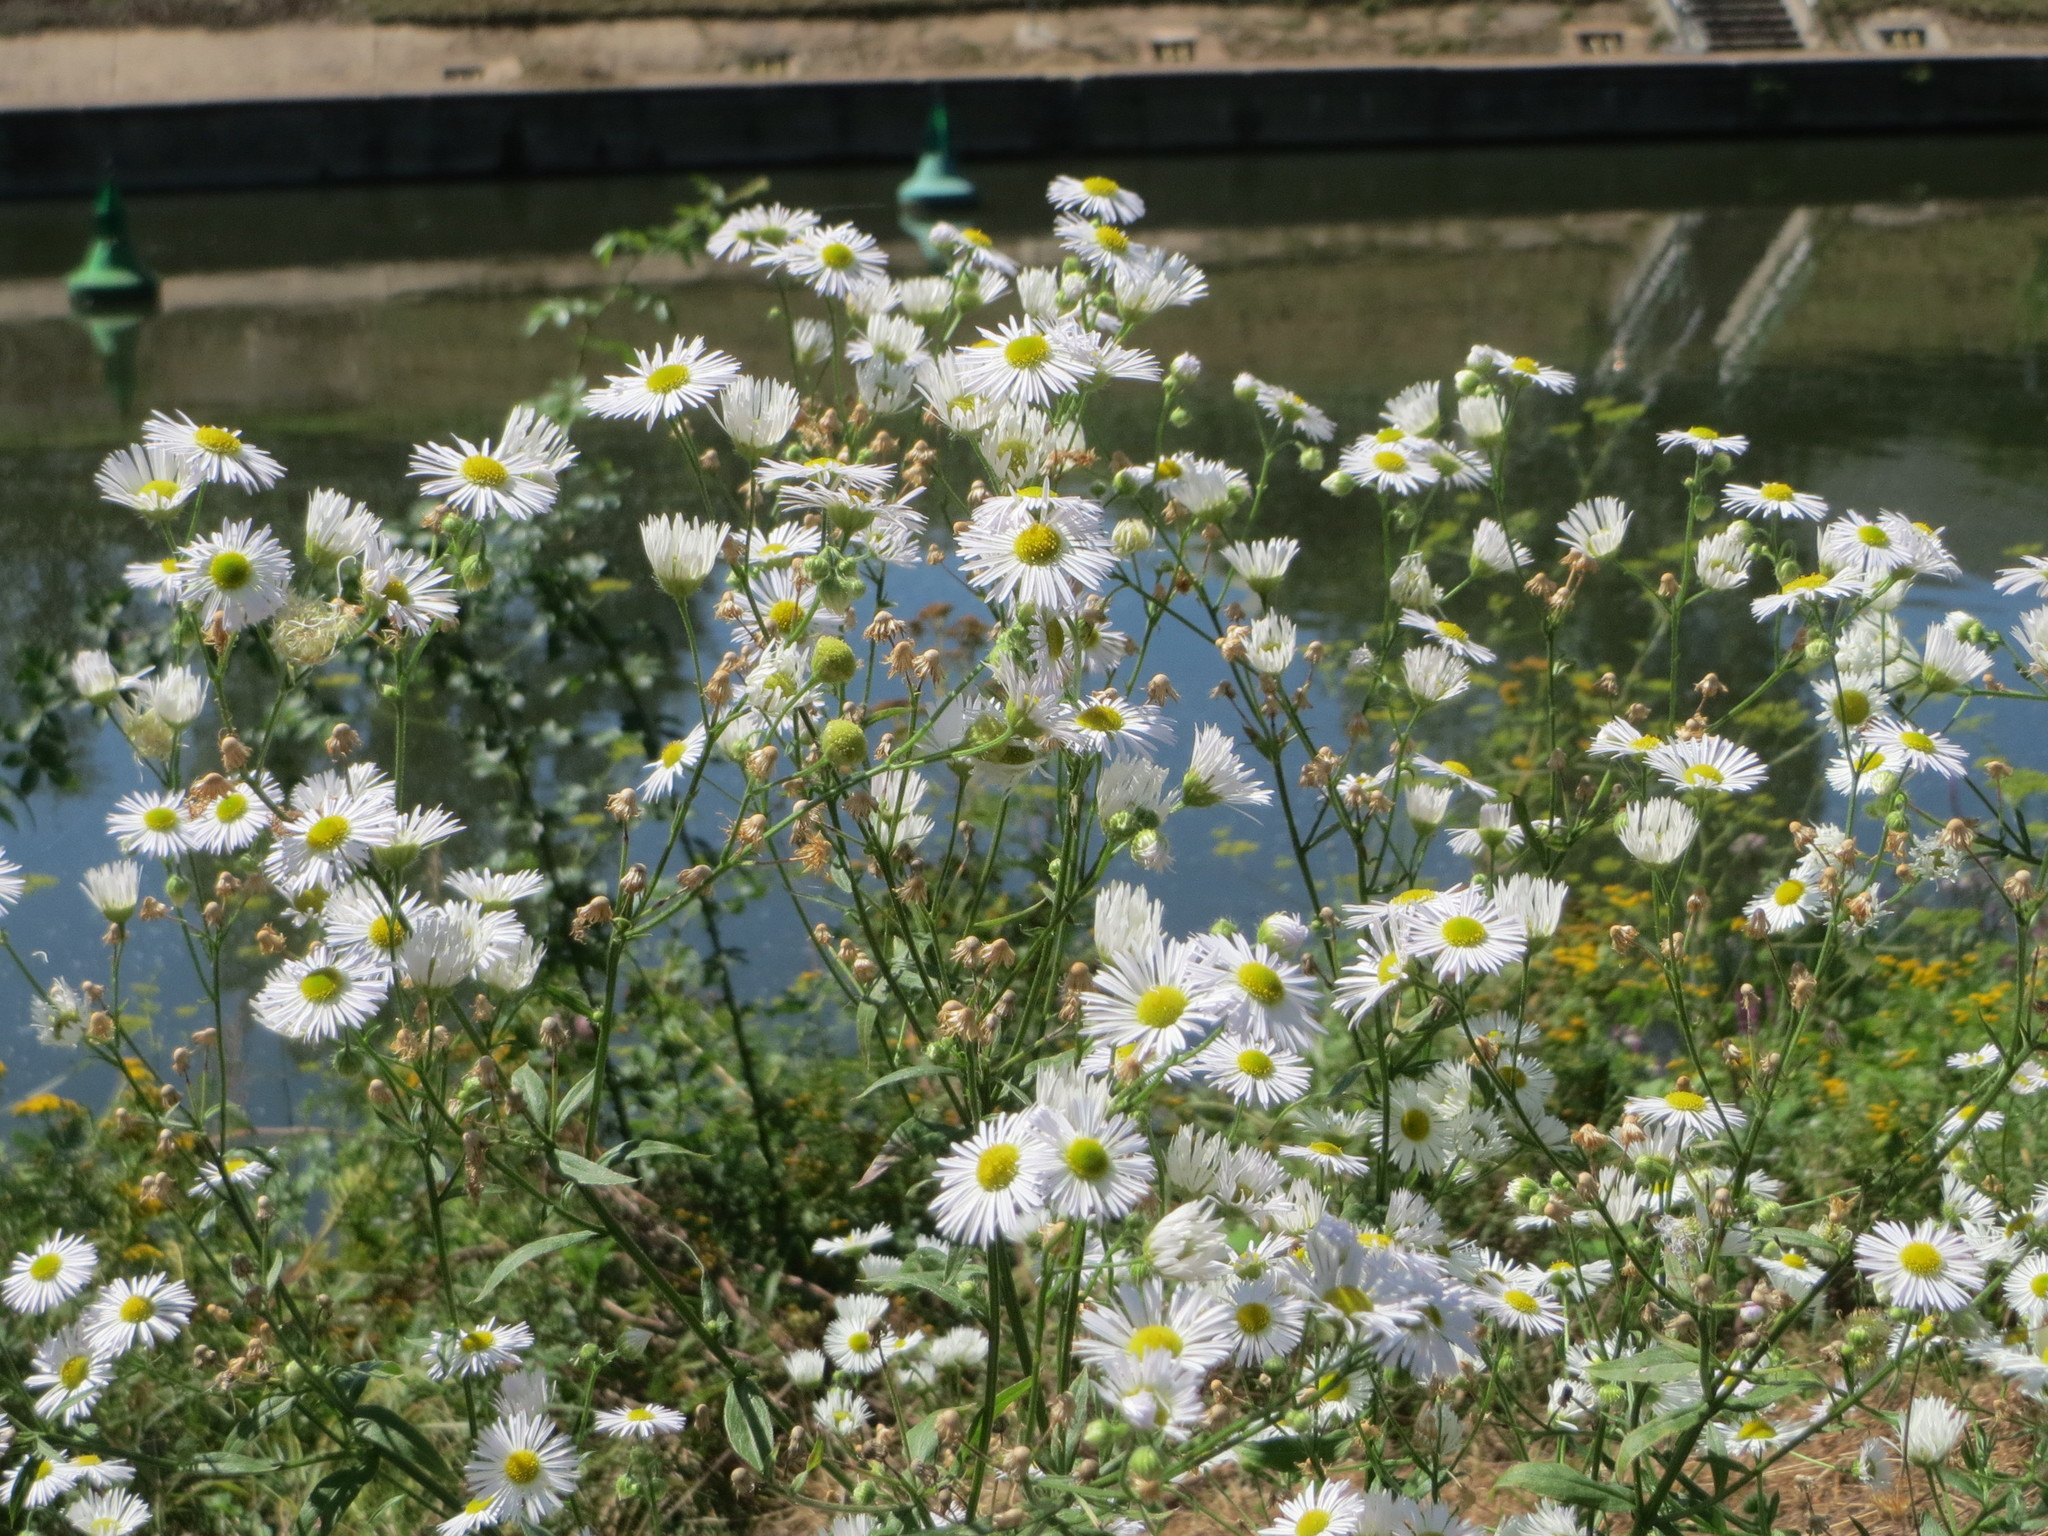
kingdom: Plantae
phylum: Tracheophyta
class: Magnoliopsida
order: Asterales
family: Asteraceae
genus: Erigeron
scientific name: Erigeron annuus
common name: Tall fleabane
